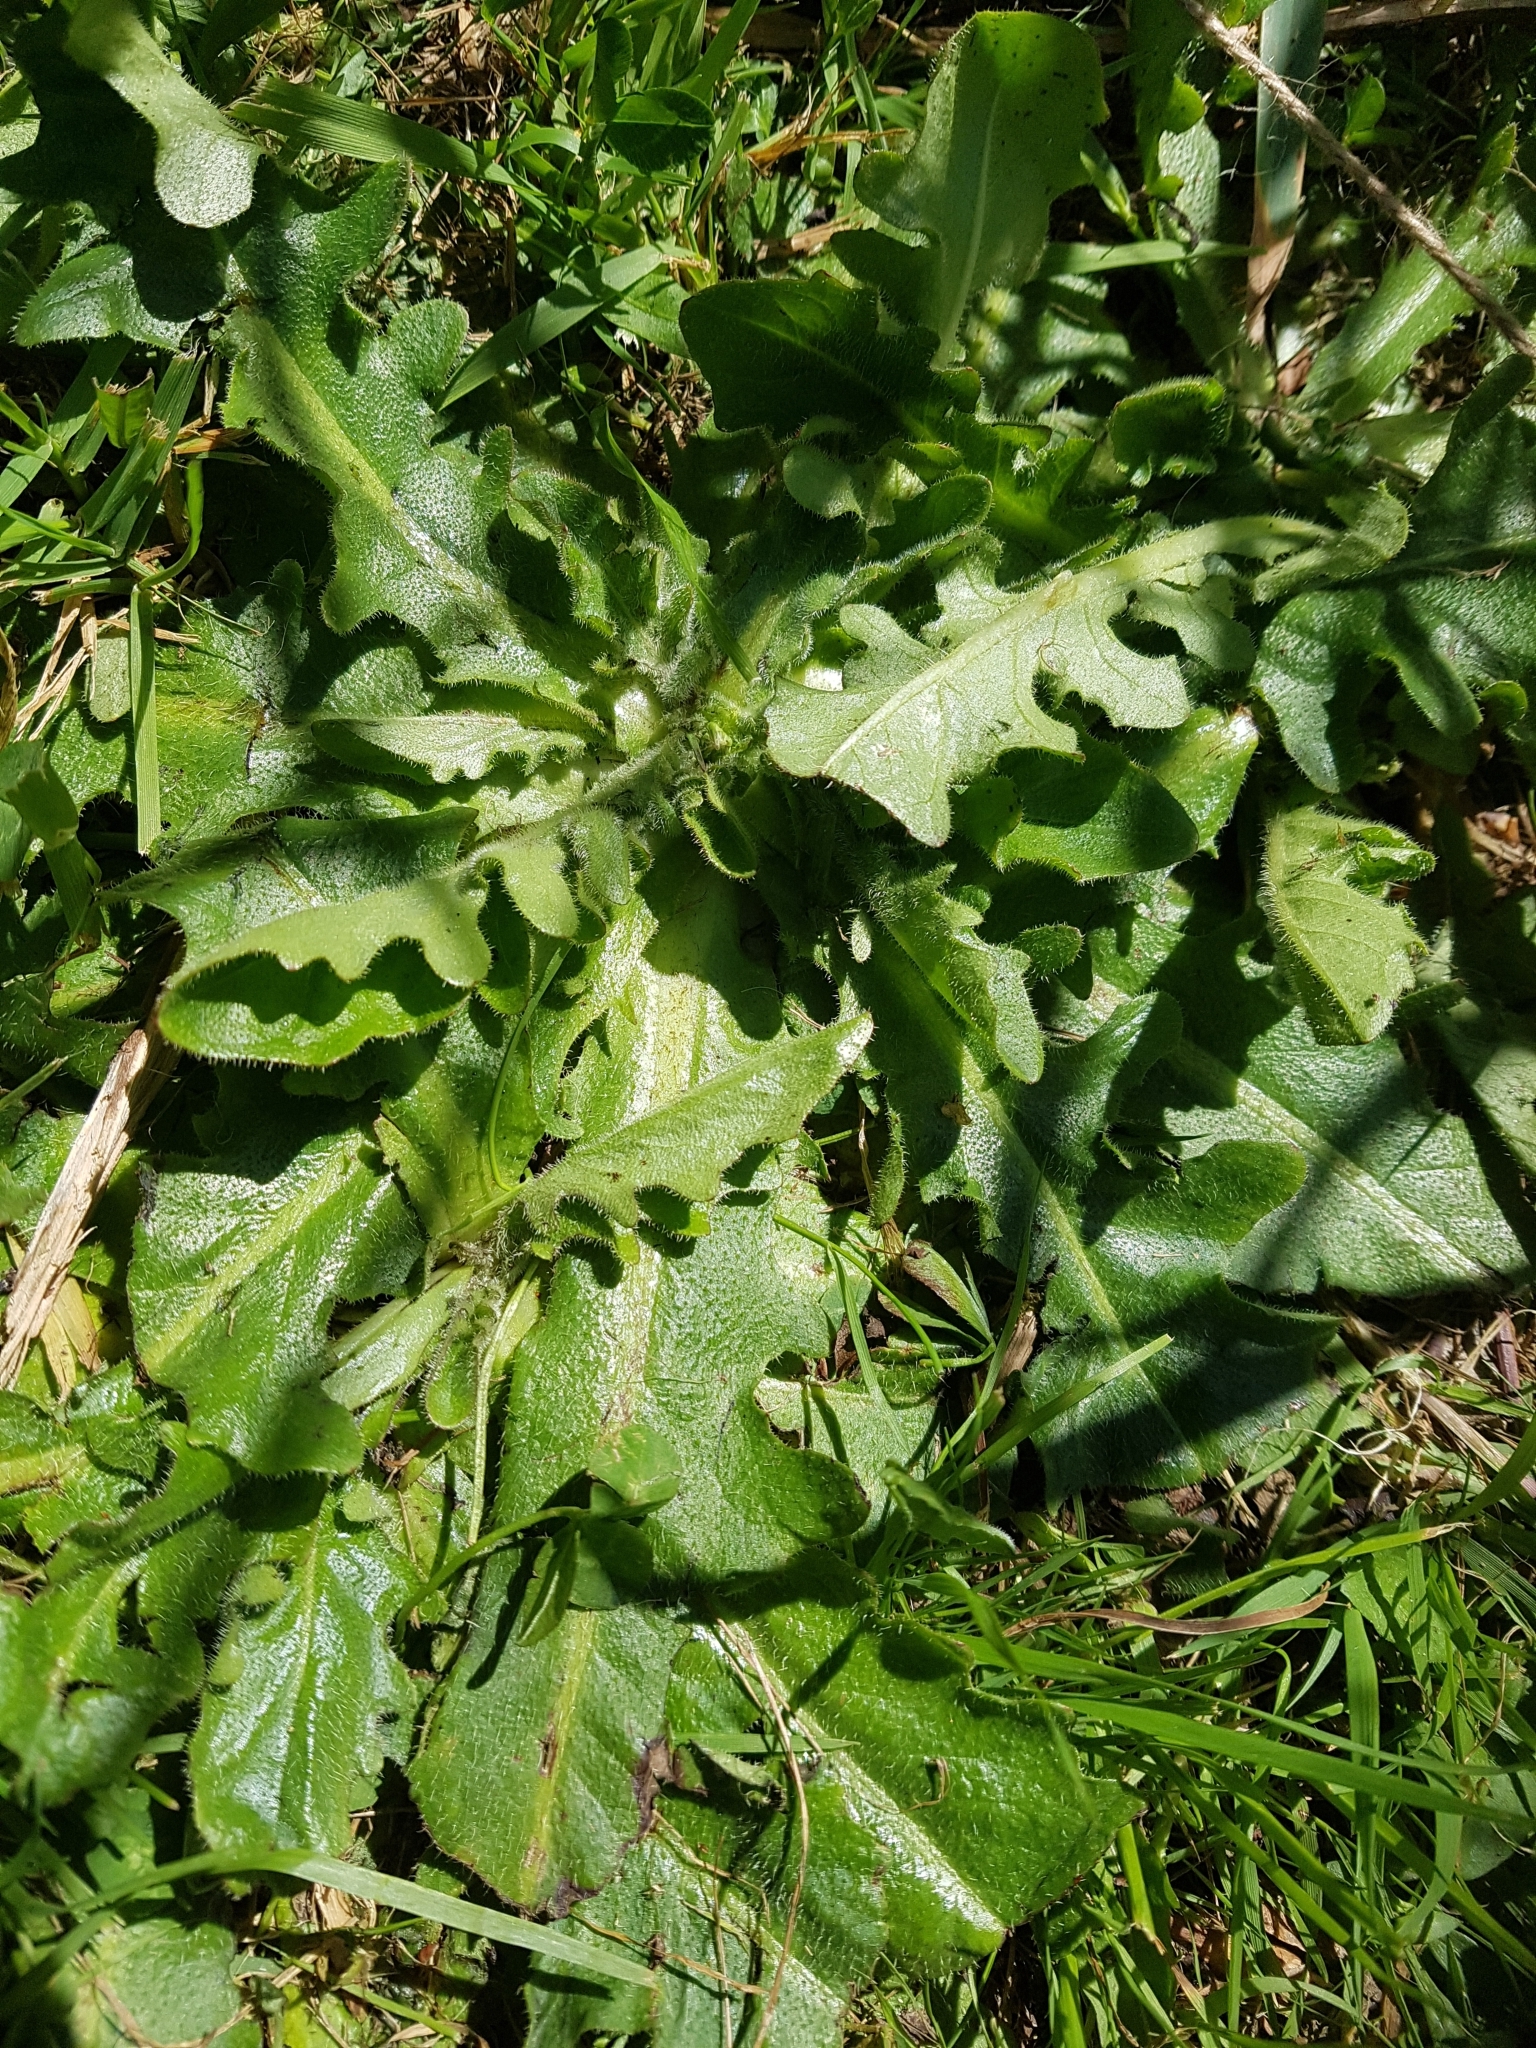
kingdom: Plantae
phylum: Tracheophyta
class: Magnoliopsida
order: Asterales
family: Asteraceae
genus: Hypochaeris
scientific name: Hypochaeris radicata
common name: Flatweed
